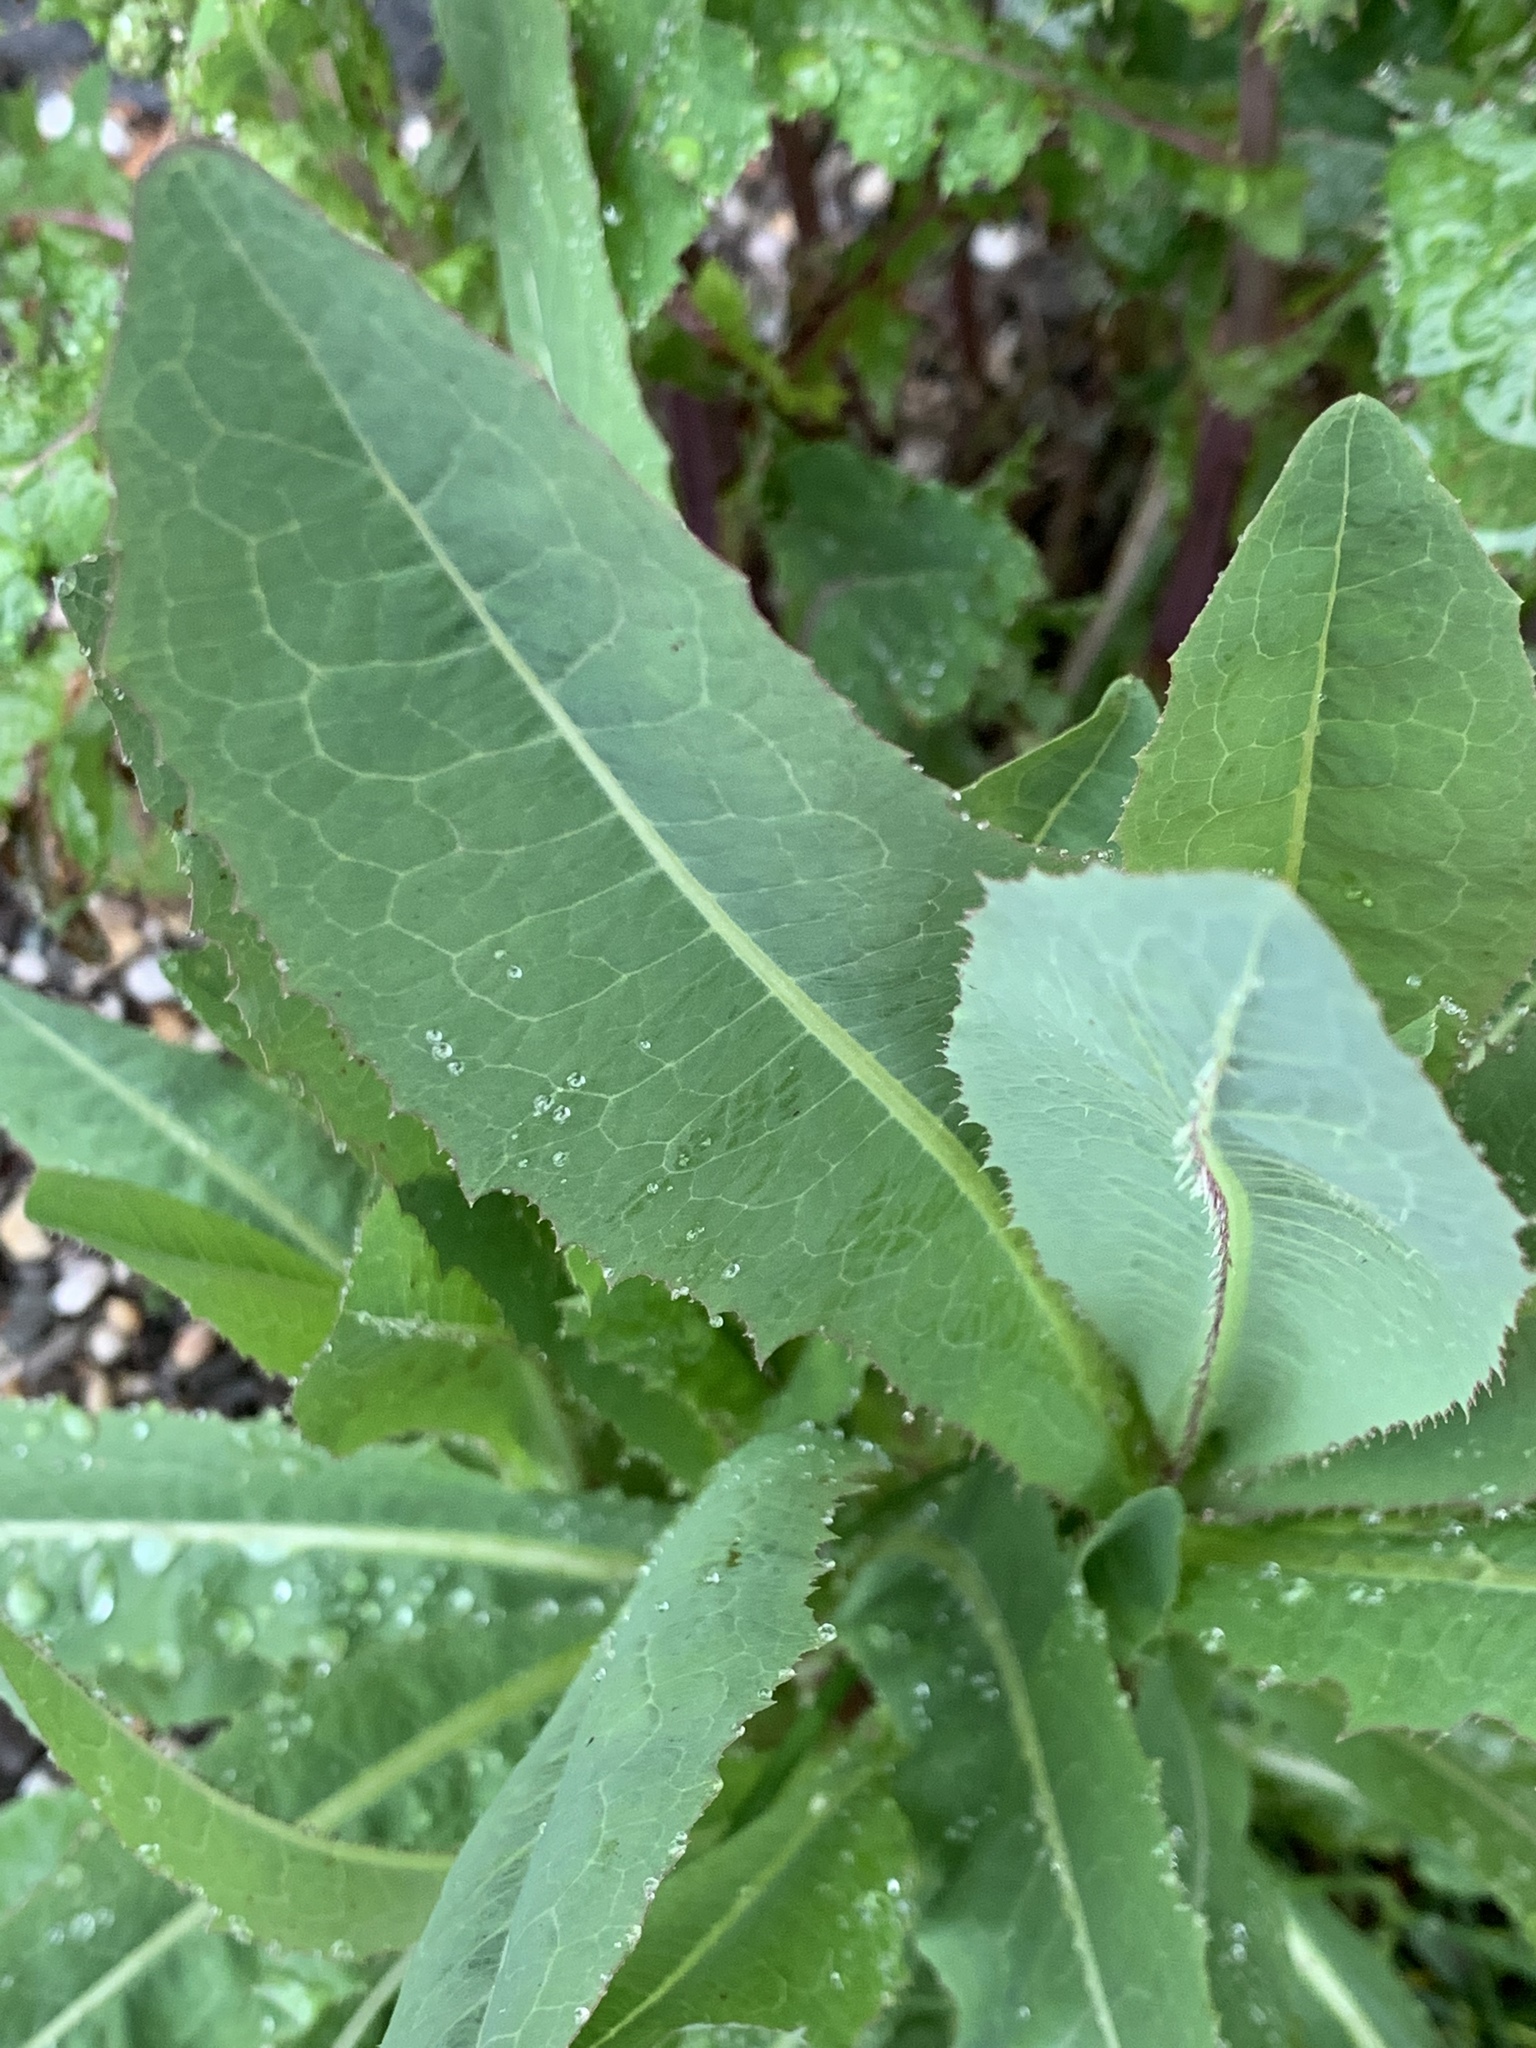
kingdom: Plantae
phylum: Tracheophyta
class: Magnoliopsida
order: Asterales
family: Asteraceae
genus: Lactuca
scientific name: Lactuca serriola
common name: Prickly lettuce
